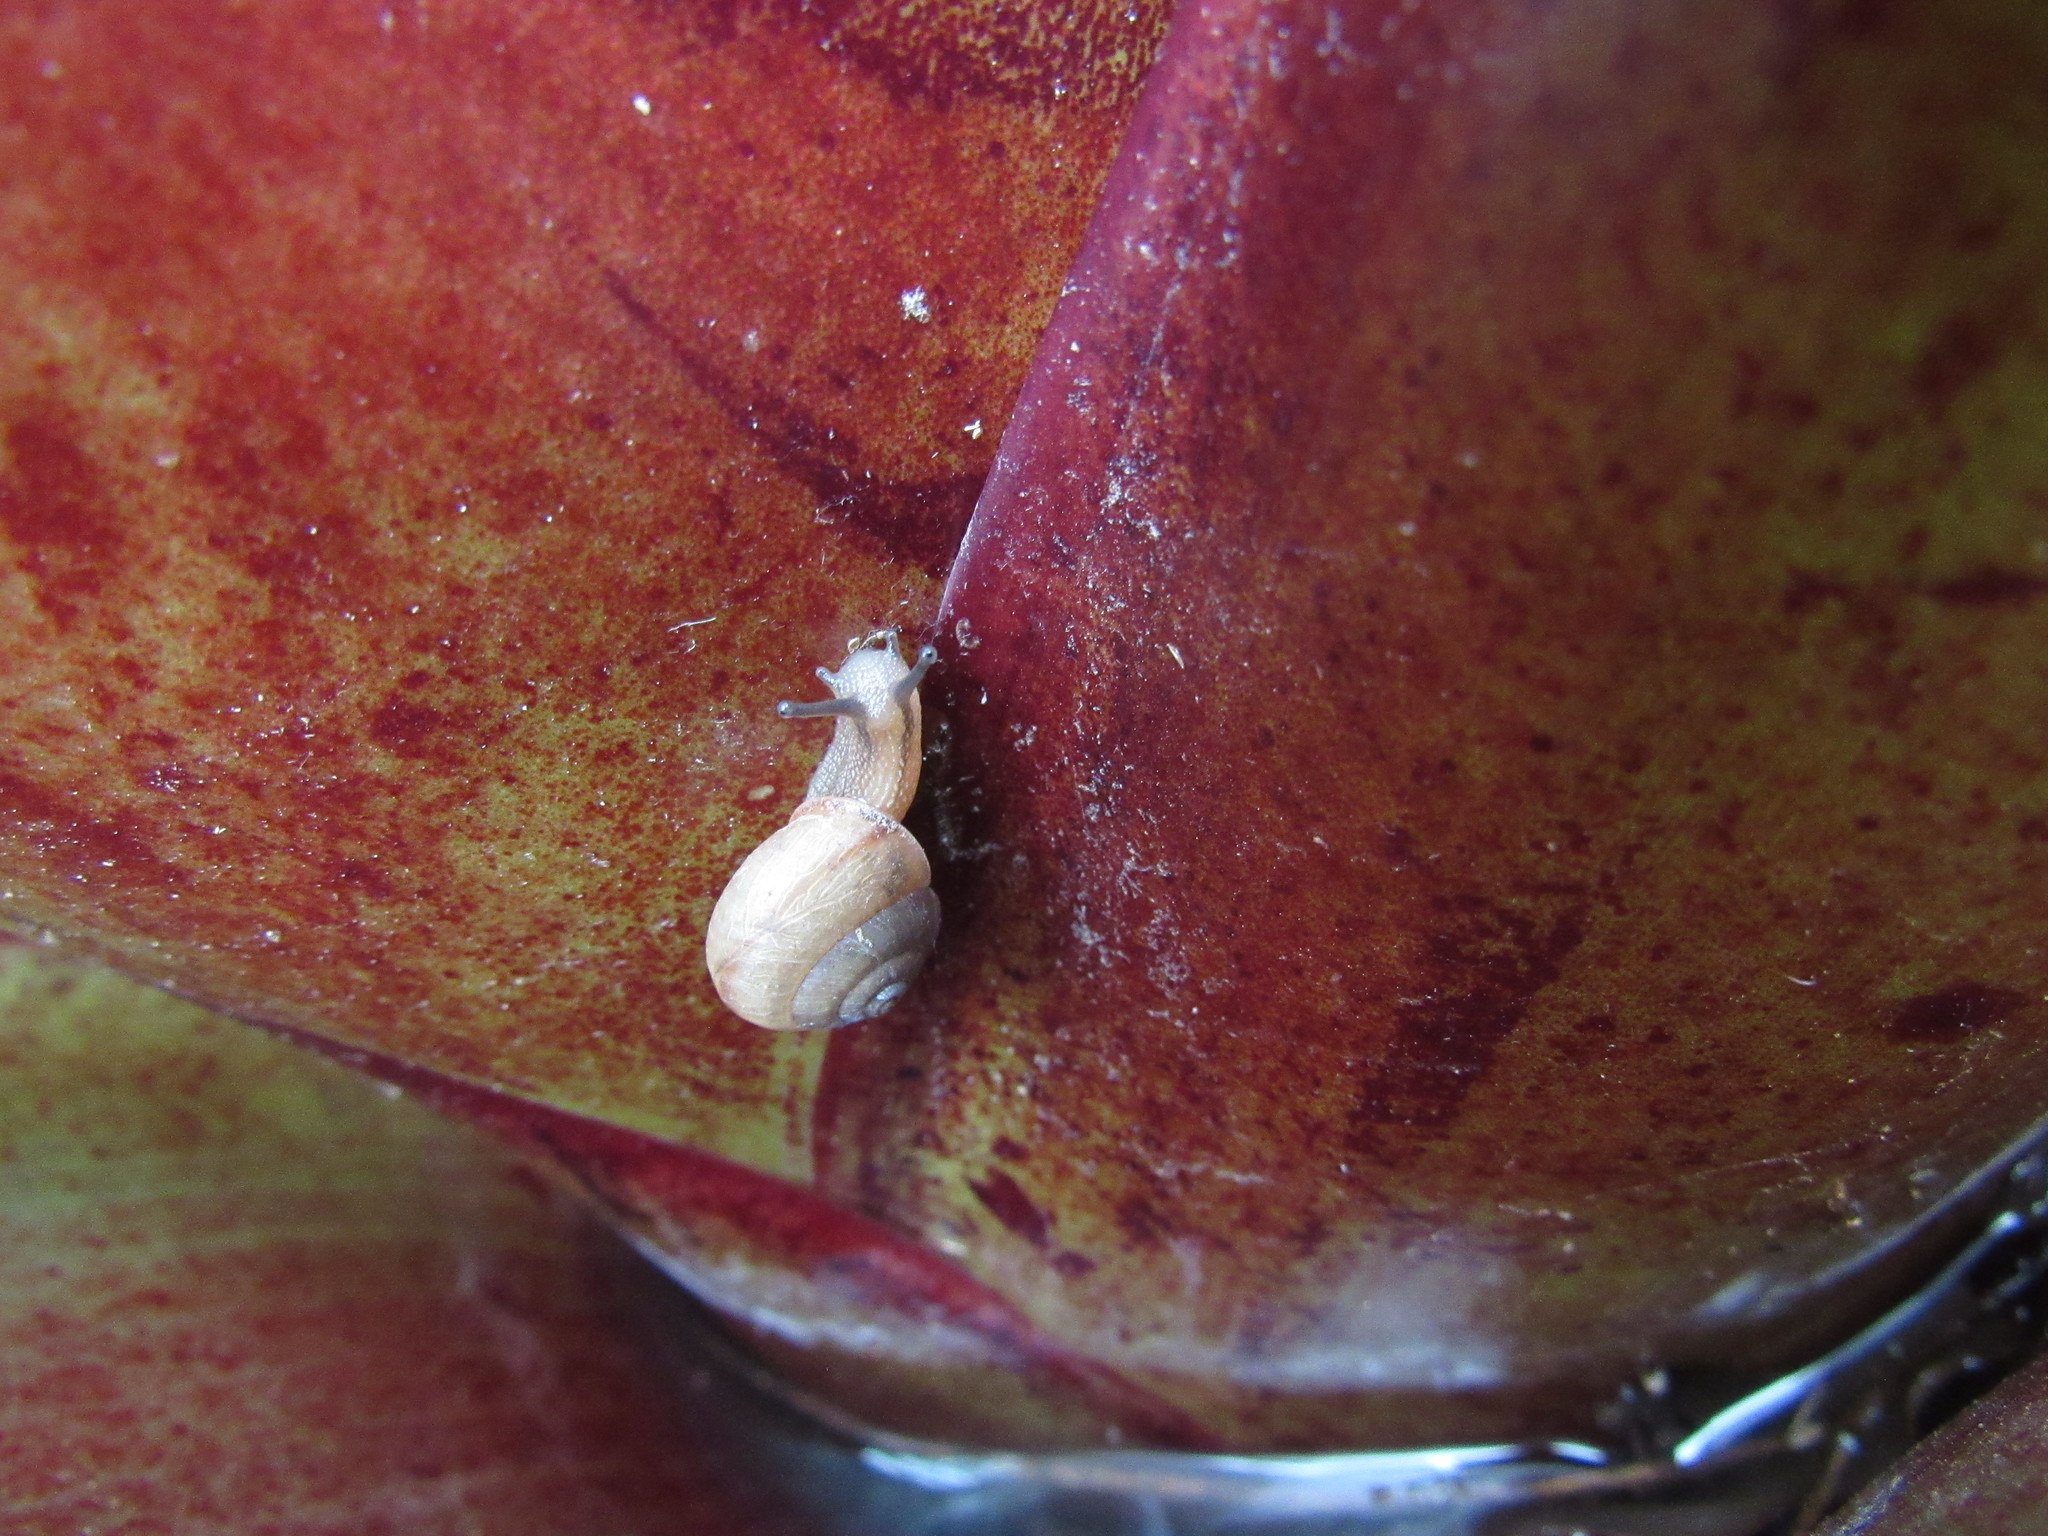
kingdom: Animalia
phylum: Mollusca
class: Gastropoda
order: Stylommatophora
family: Camaenidae
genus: Bradybaena
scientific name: Bradybaena similaris
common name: Asian trampsnail
